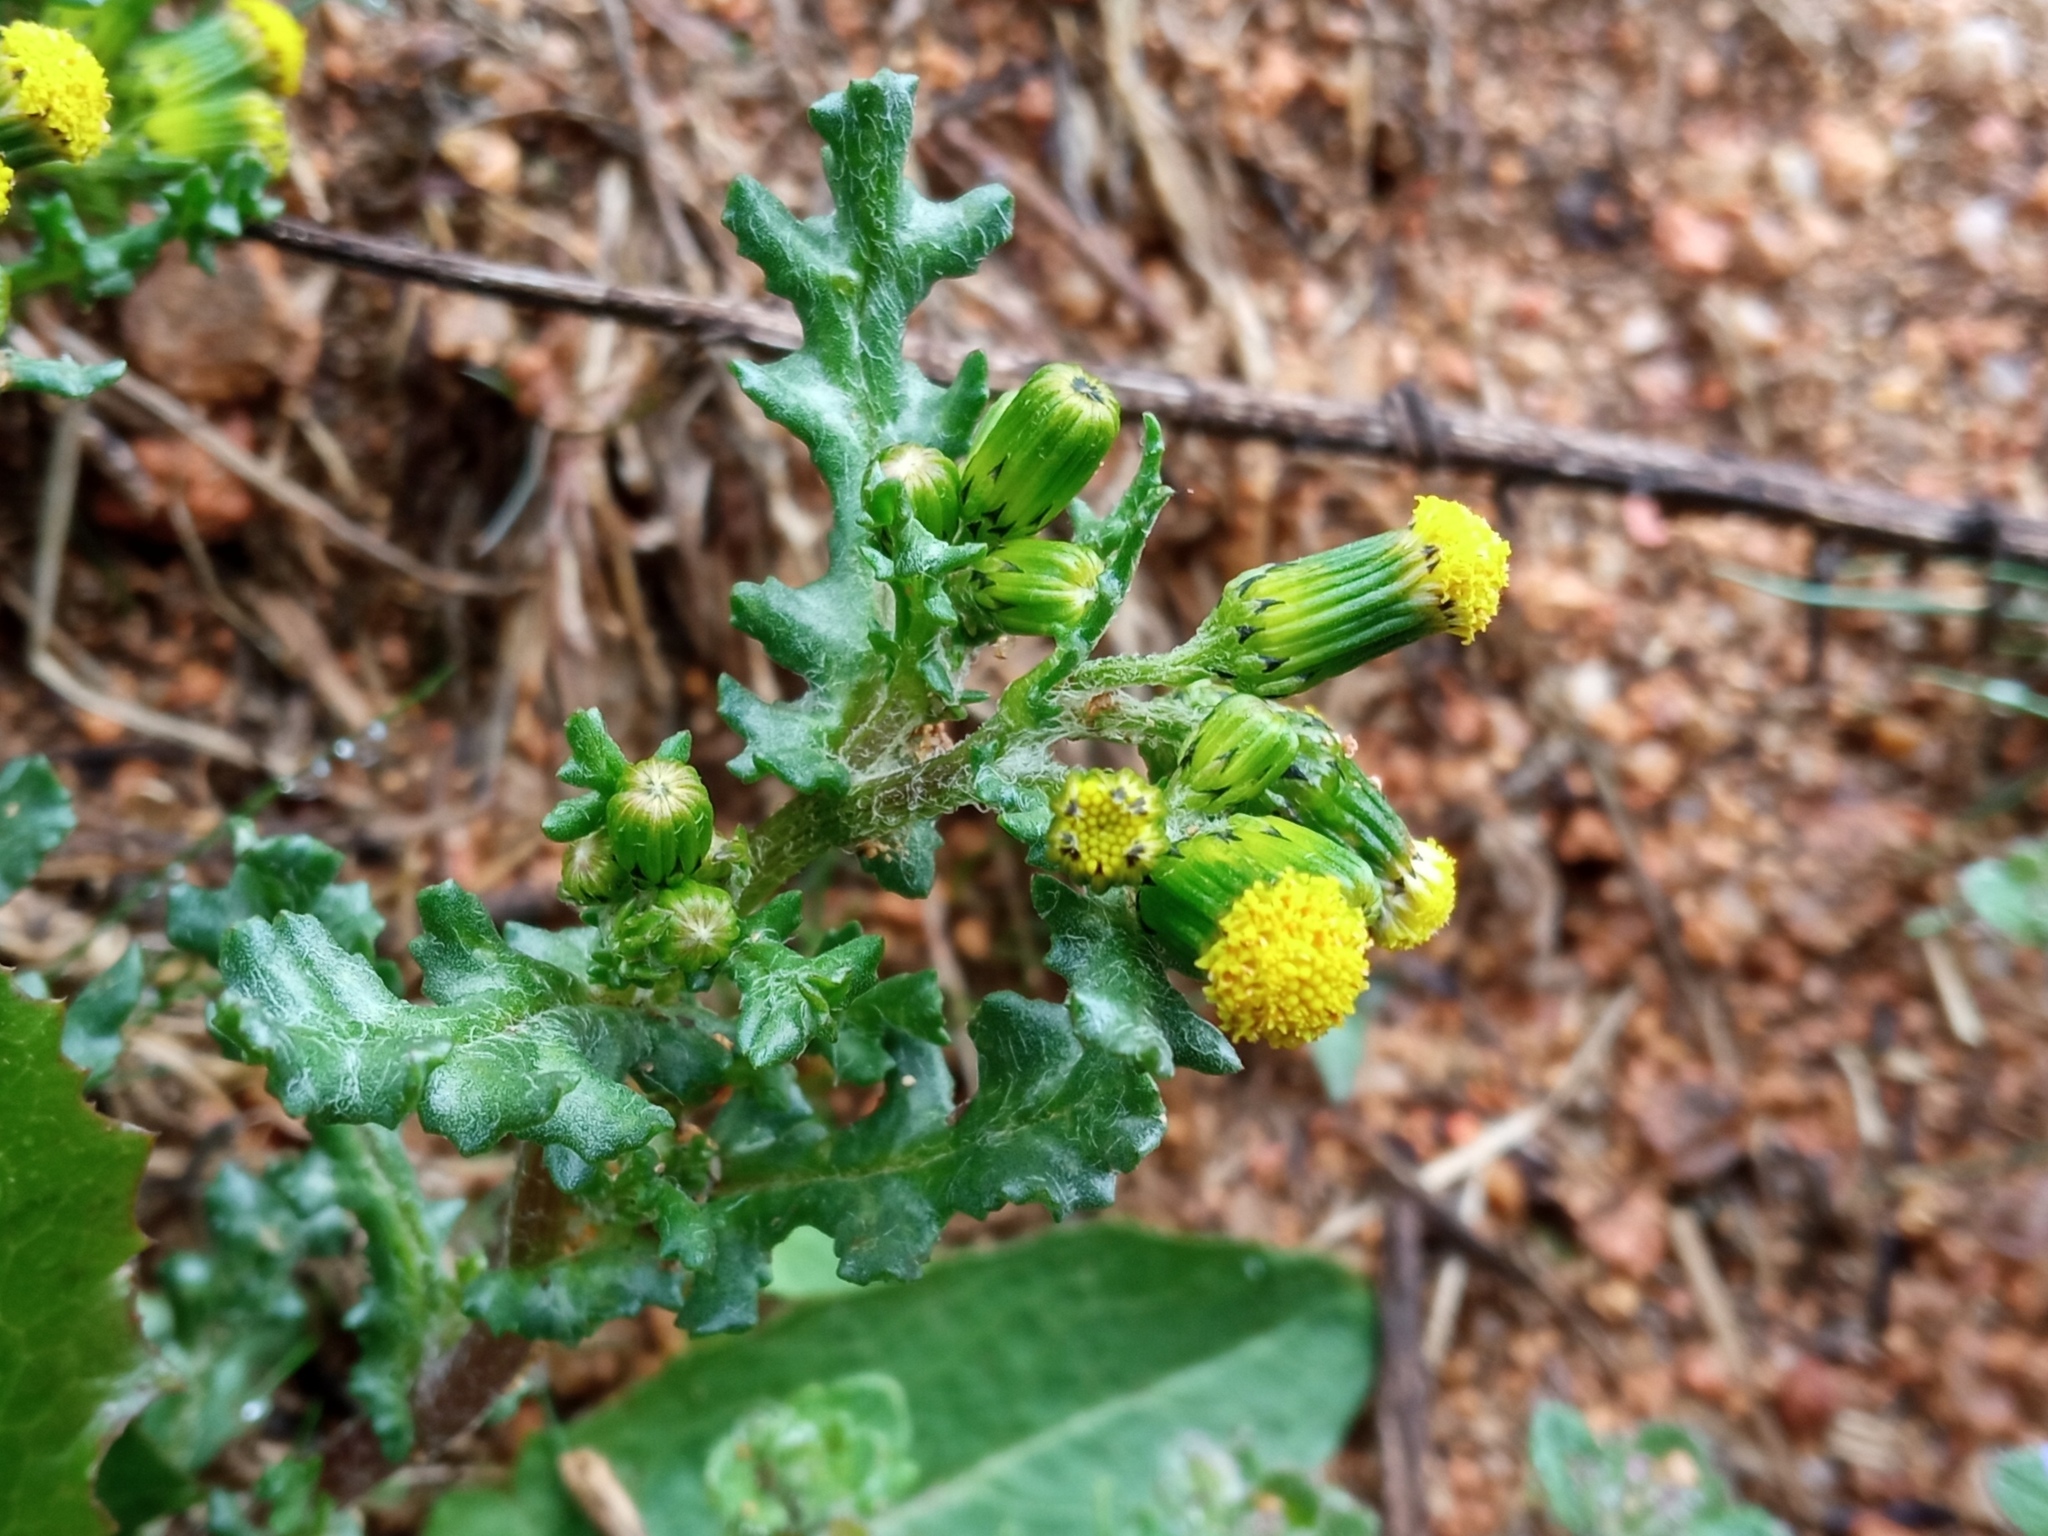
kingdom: Plantae
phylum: Tracheophyta
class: Magnoliopsida
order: Asterales
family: Asteraceae
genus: Senecio
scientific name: Senecio vulgaris
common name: Old-man-in-the-spring
